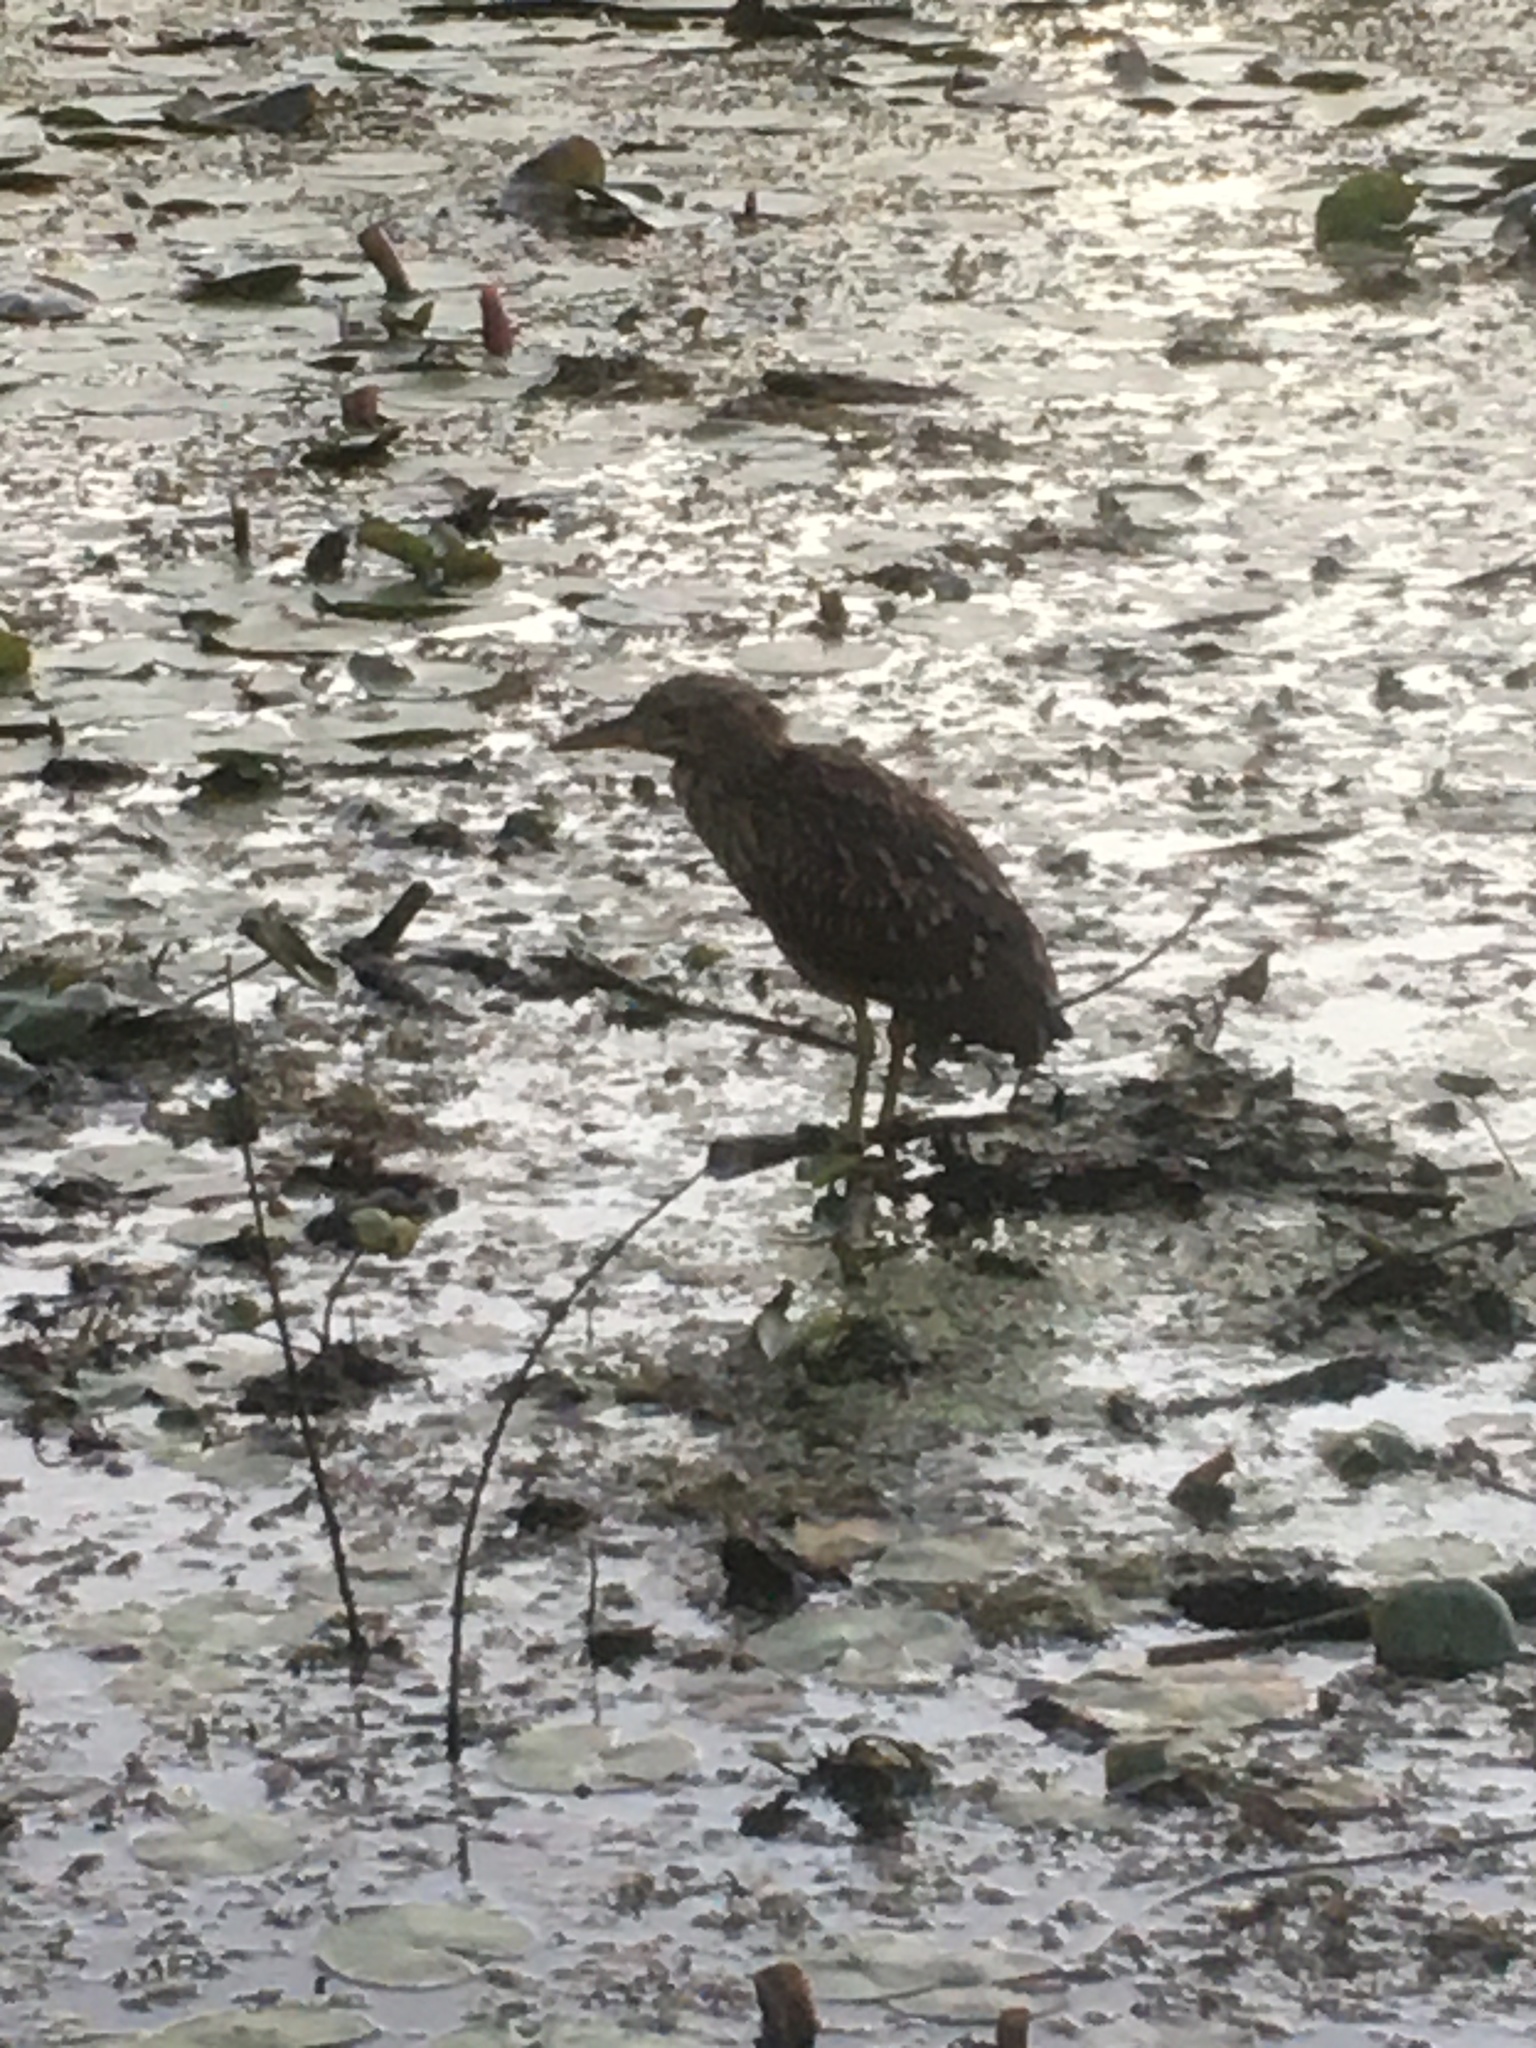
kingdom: Animalia
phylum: Chordata
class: Aves
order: Pelecaniformes
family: Ardeidae
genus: Nycticorax
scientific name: Nycticorax nycticorax
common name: Black-crowned night heron
